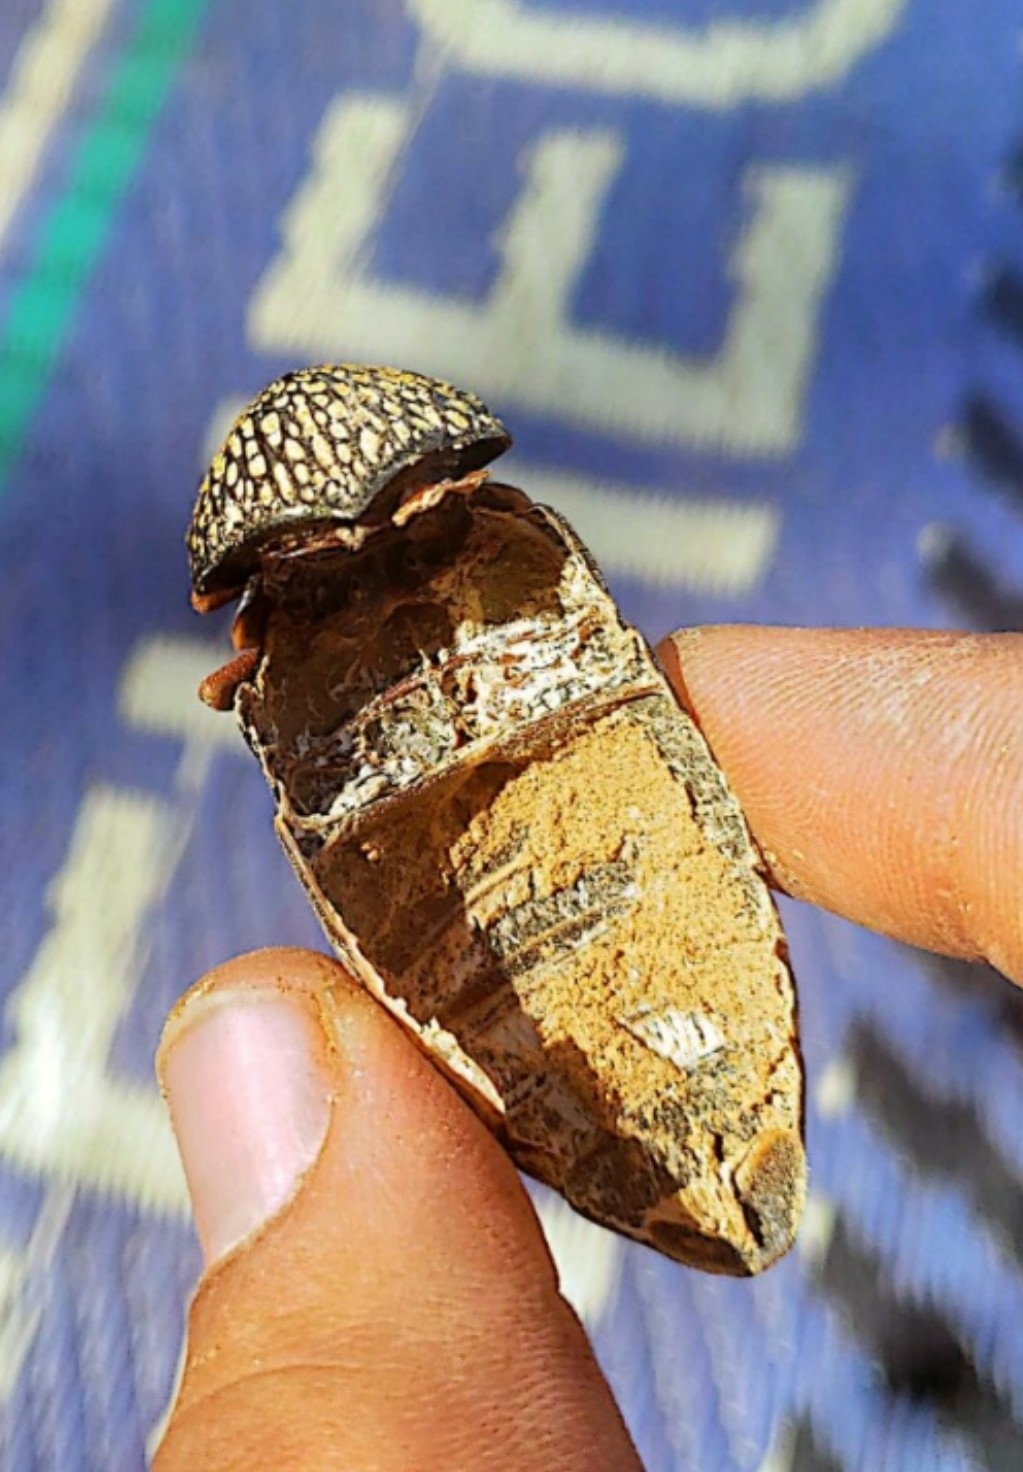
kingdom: Animalia
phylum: Arthropoda
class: Insecta
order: Coleoptera
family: Buprestidae
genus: Sternocera
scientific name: Sternocera castanea
